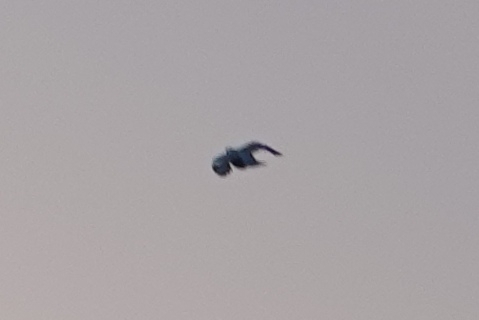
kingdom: Animalia
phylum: Chordata
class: Aves
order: Columbiformes
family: Columbidae
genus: Columba
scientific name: Columba palumbus
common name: Common wood pigeon
